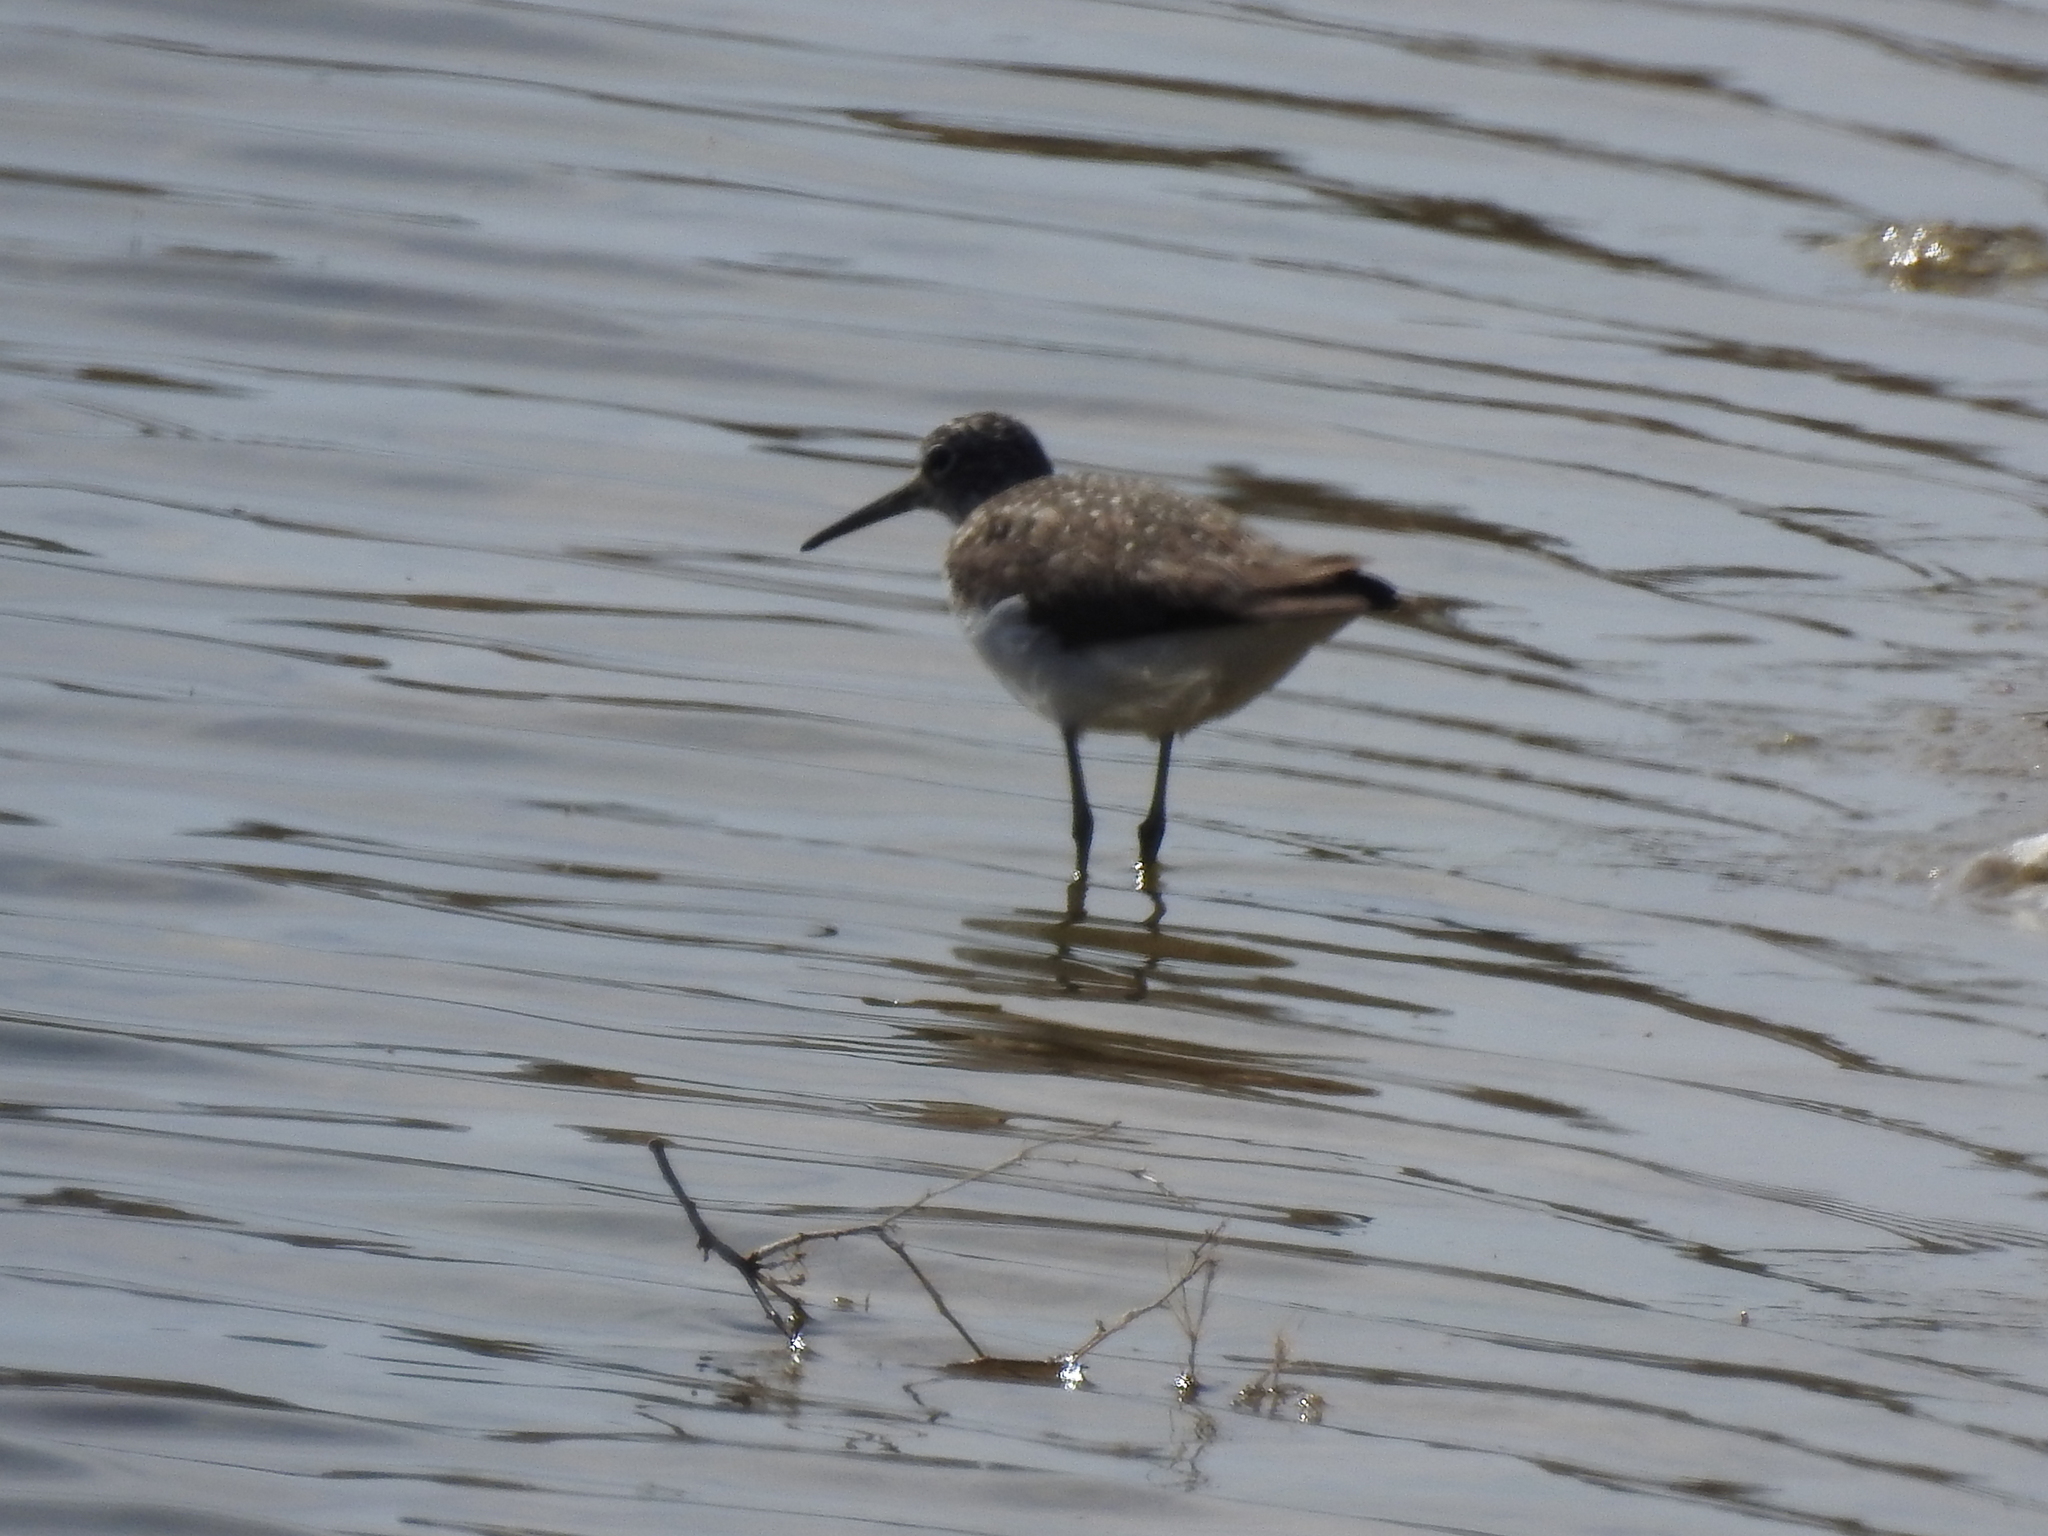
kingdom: Animalia
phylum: Chordata
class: Aves
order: Charadriiformes
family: Scolopacidae
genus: Tringa
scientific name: Tringa ochropus
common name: Green sandpiper
